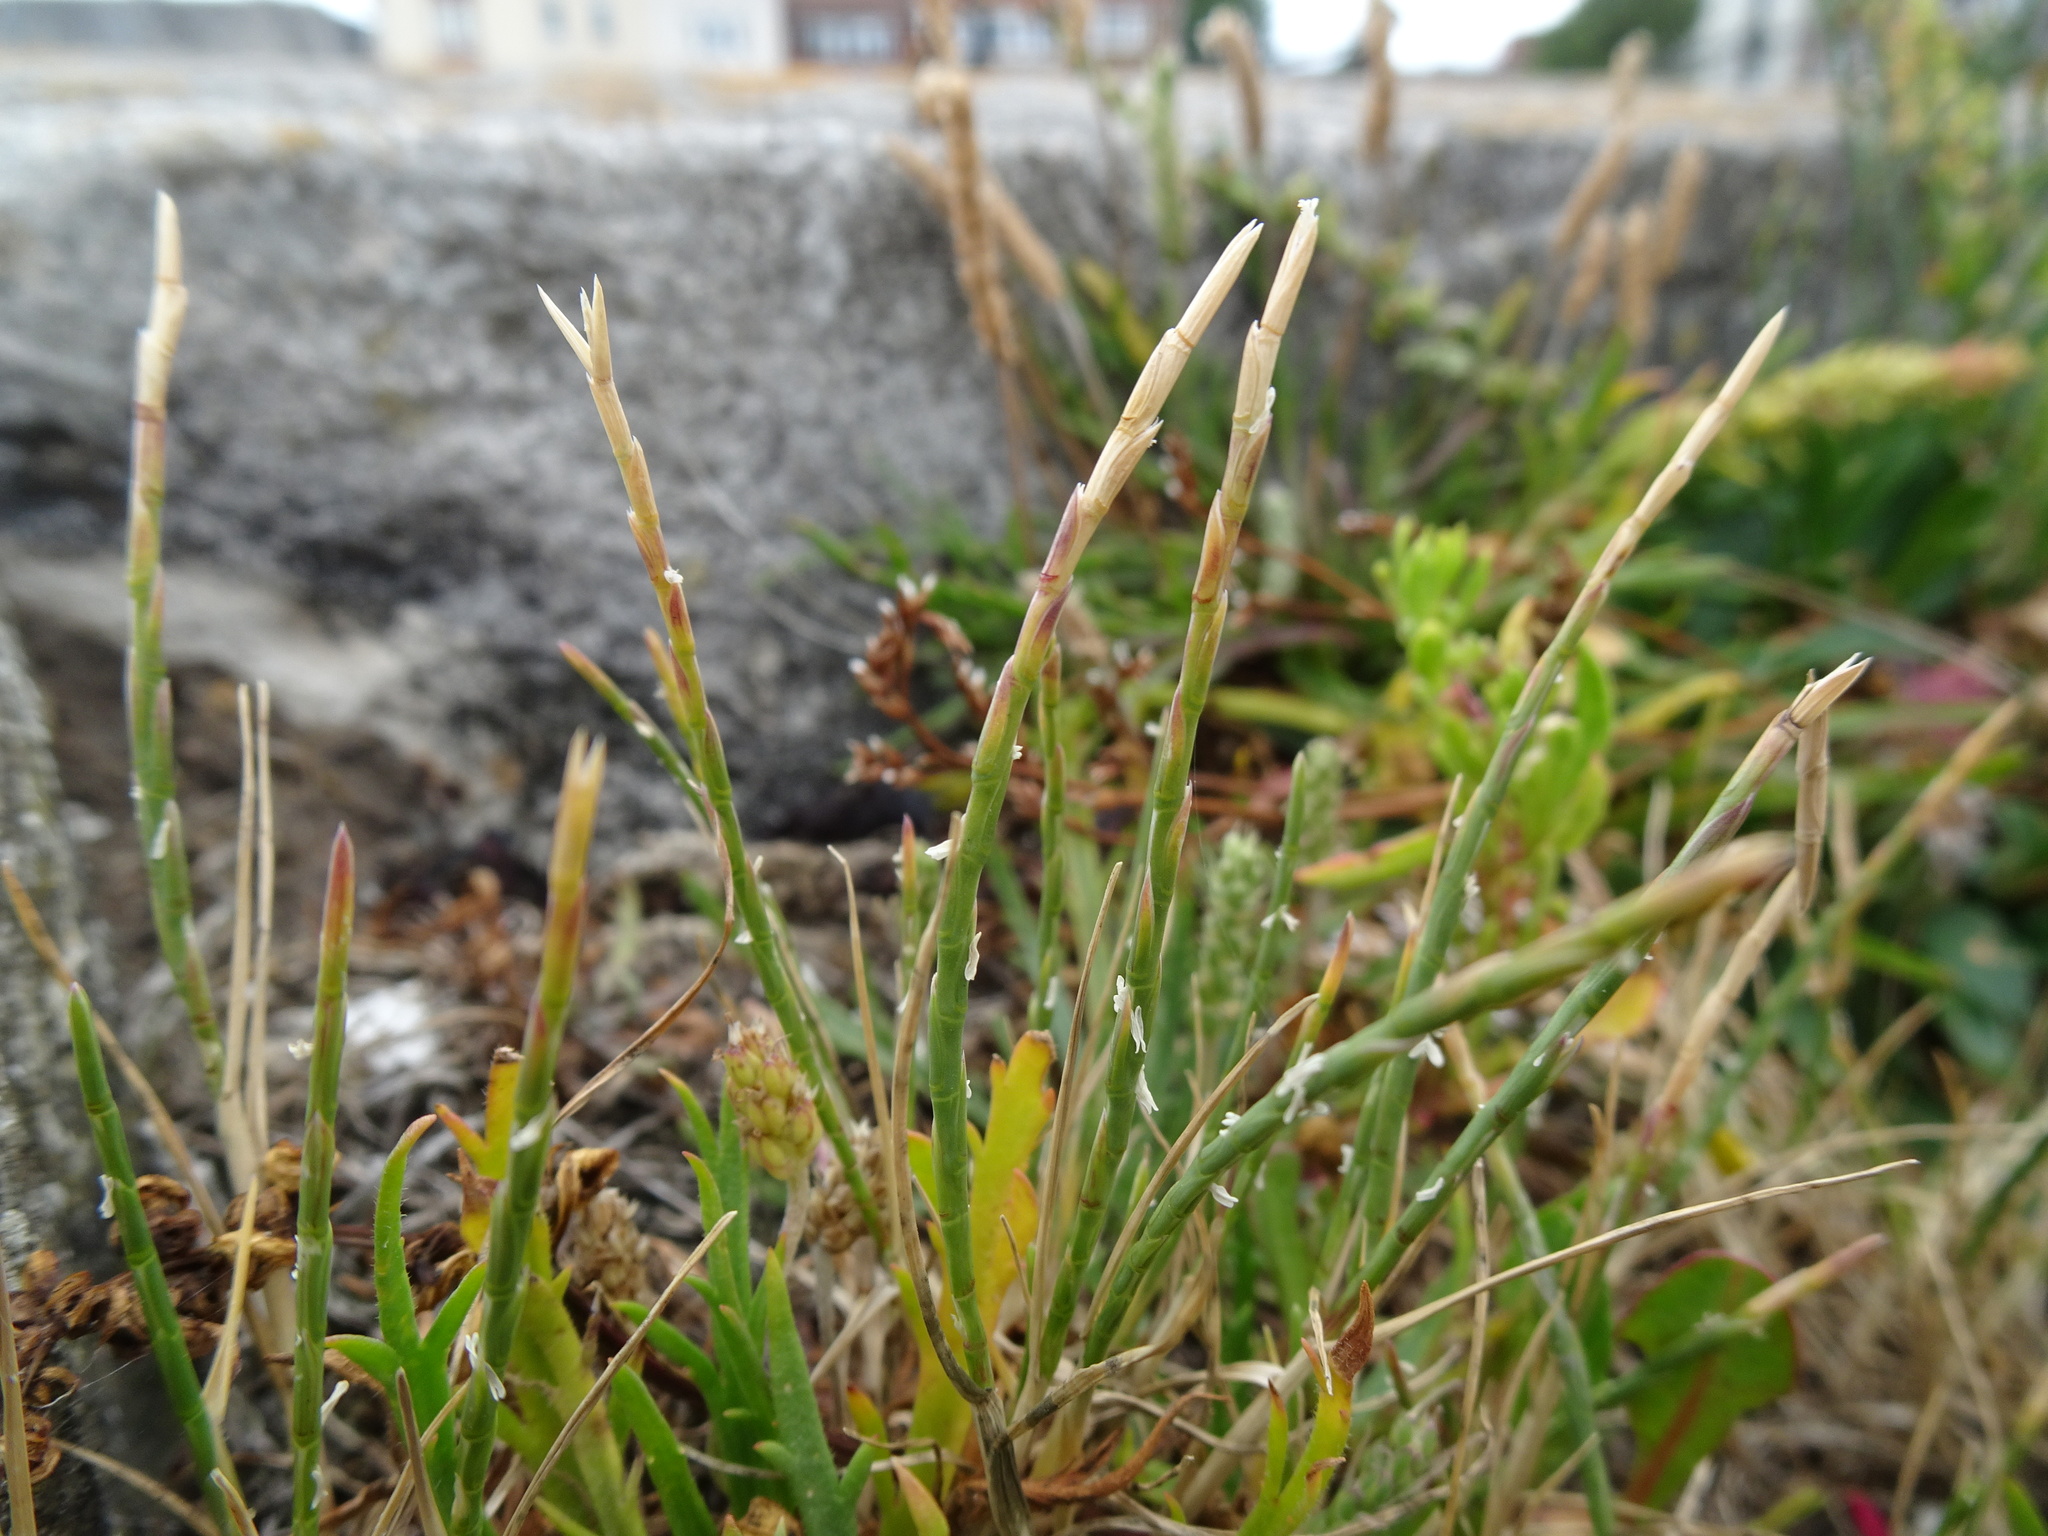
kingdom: Plantae
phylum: Tracheophyta
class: Liliopsida
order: Poales
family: Poaceae
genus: Parapholis
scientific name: Parapholis strigosa
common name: Hard-grass
